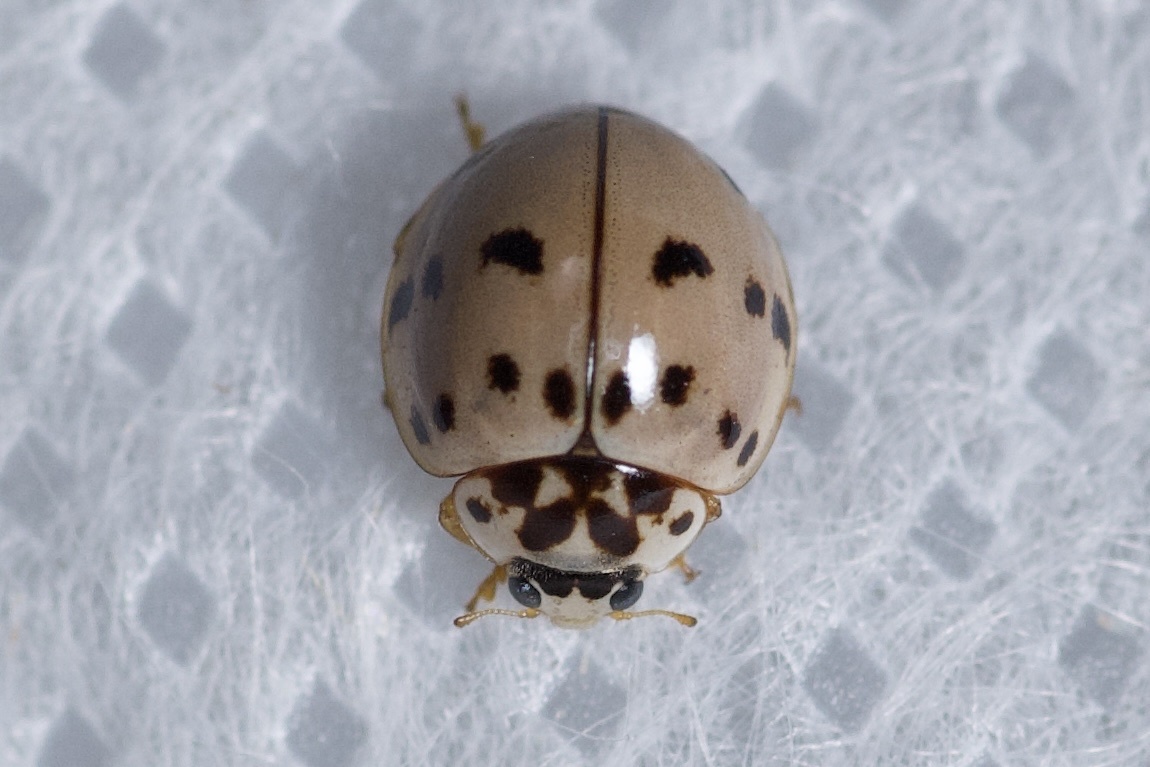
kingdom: Animalia
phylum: Arthropoda
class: Insecta
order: Coleoptera
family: Coccinellidae
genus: Olla
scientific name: Olla v-nigrum
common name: Ashy gray lady beetle
